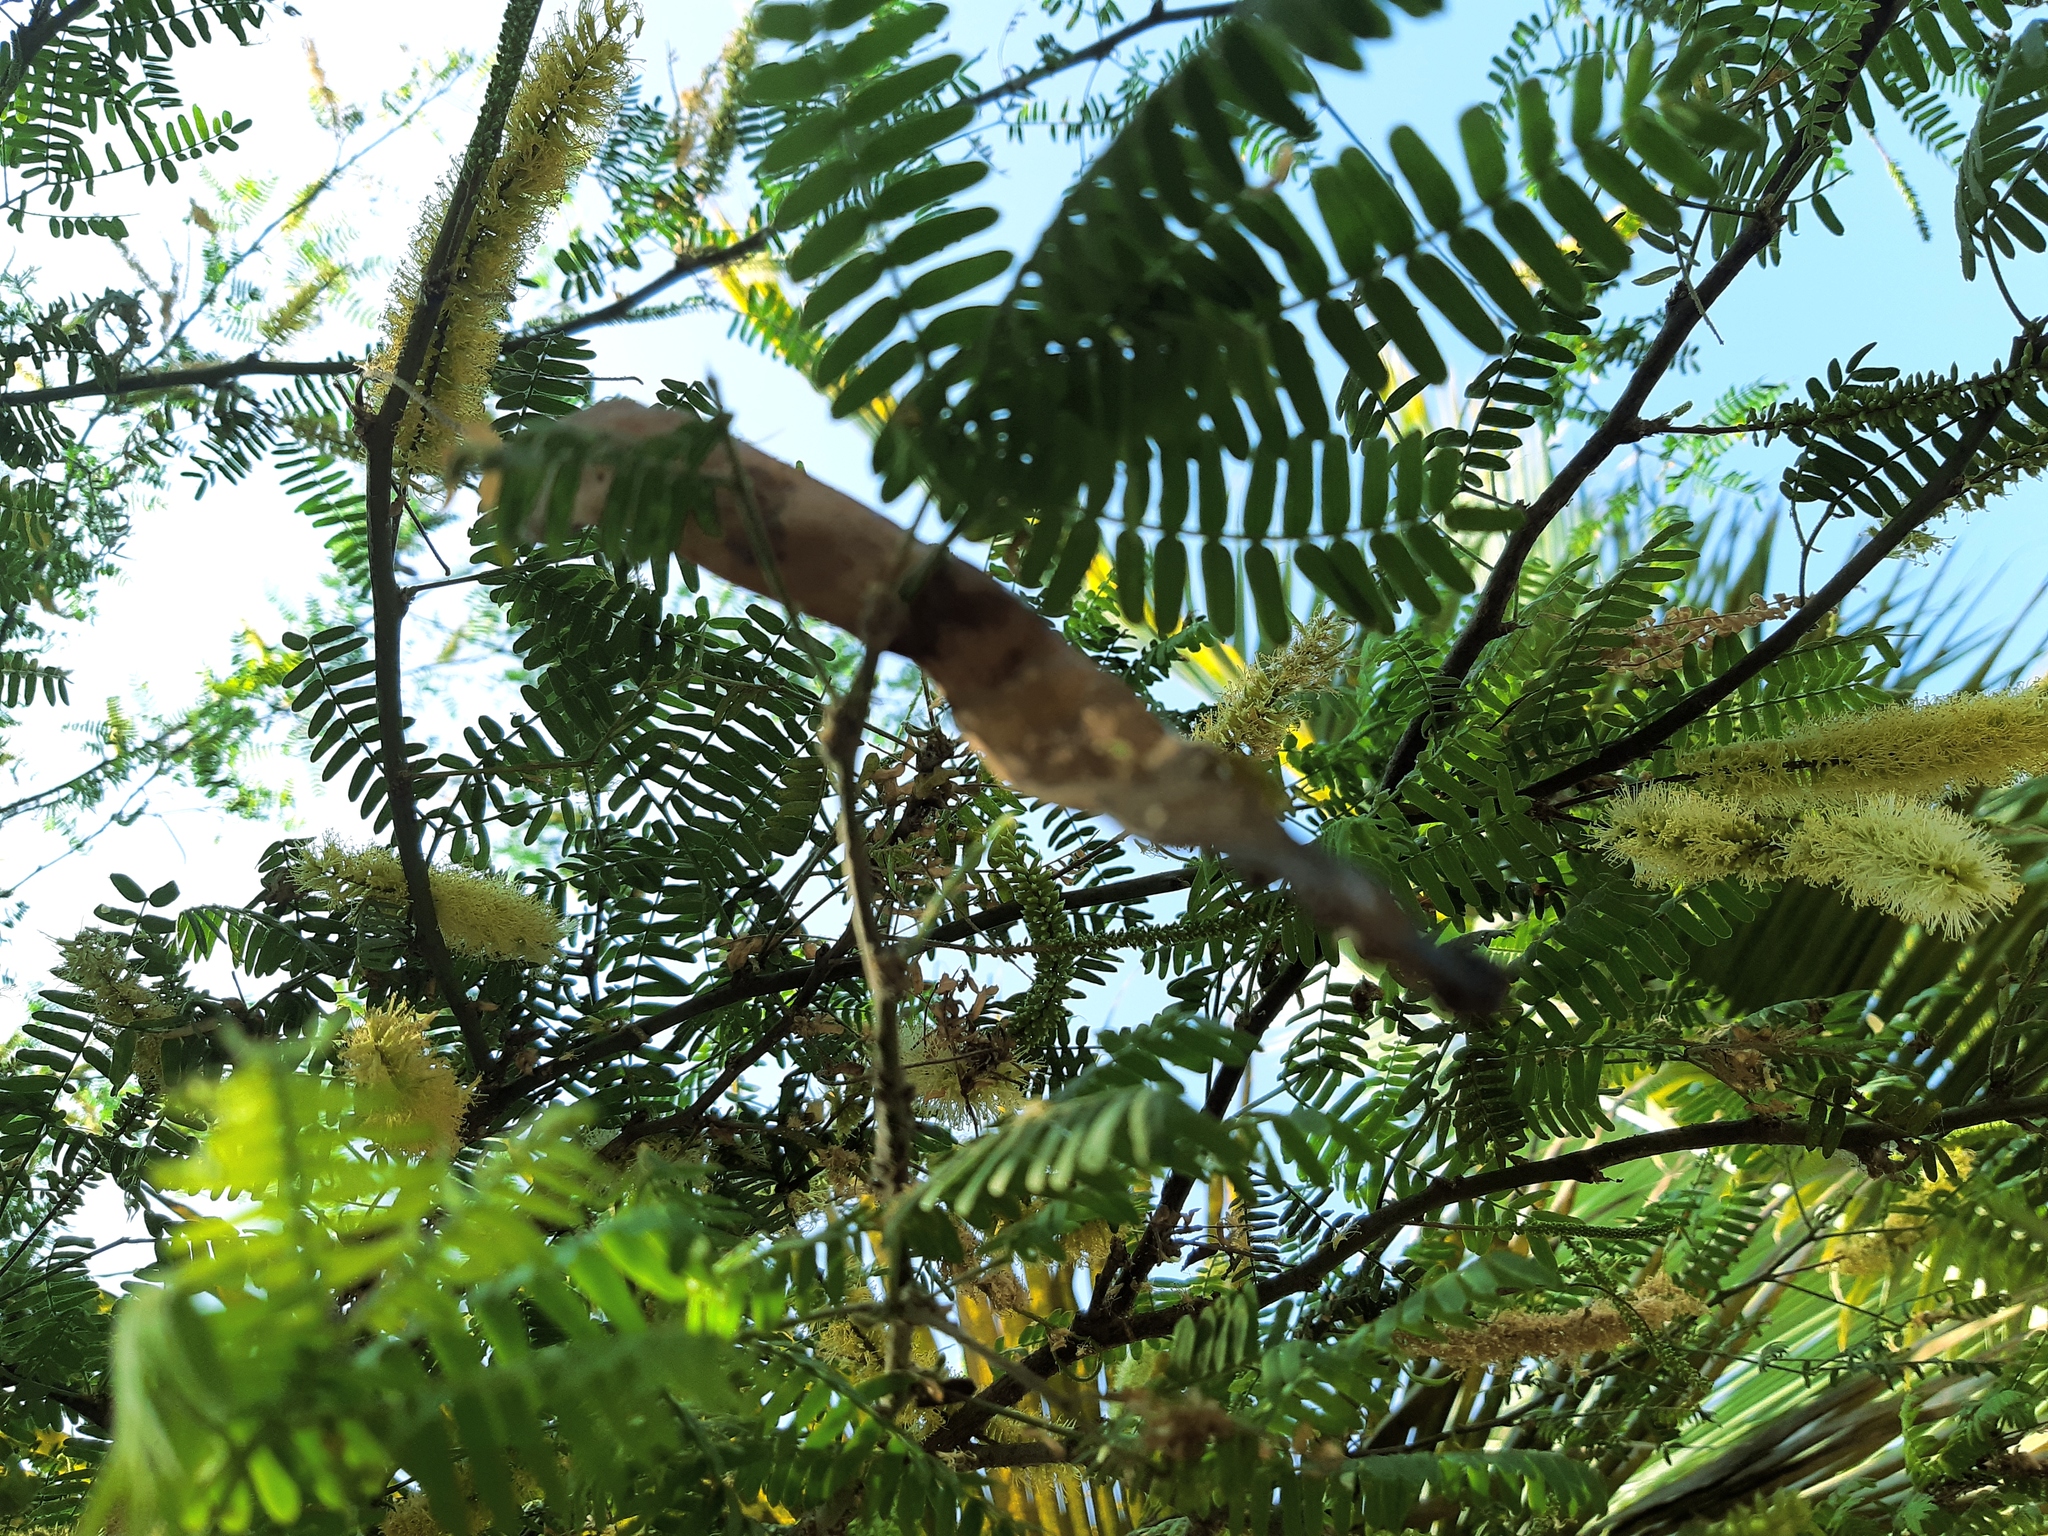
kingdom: Plantae
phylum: Tracheophyta
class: Magnoliopsida
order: Fabales
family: Fabaceae
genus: Prosopis
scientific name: Prosopis pallida
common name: Mesquite
